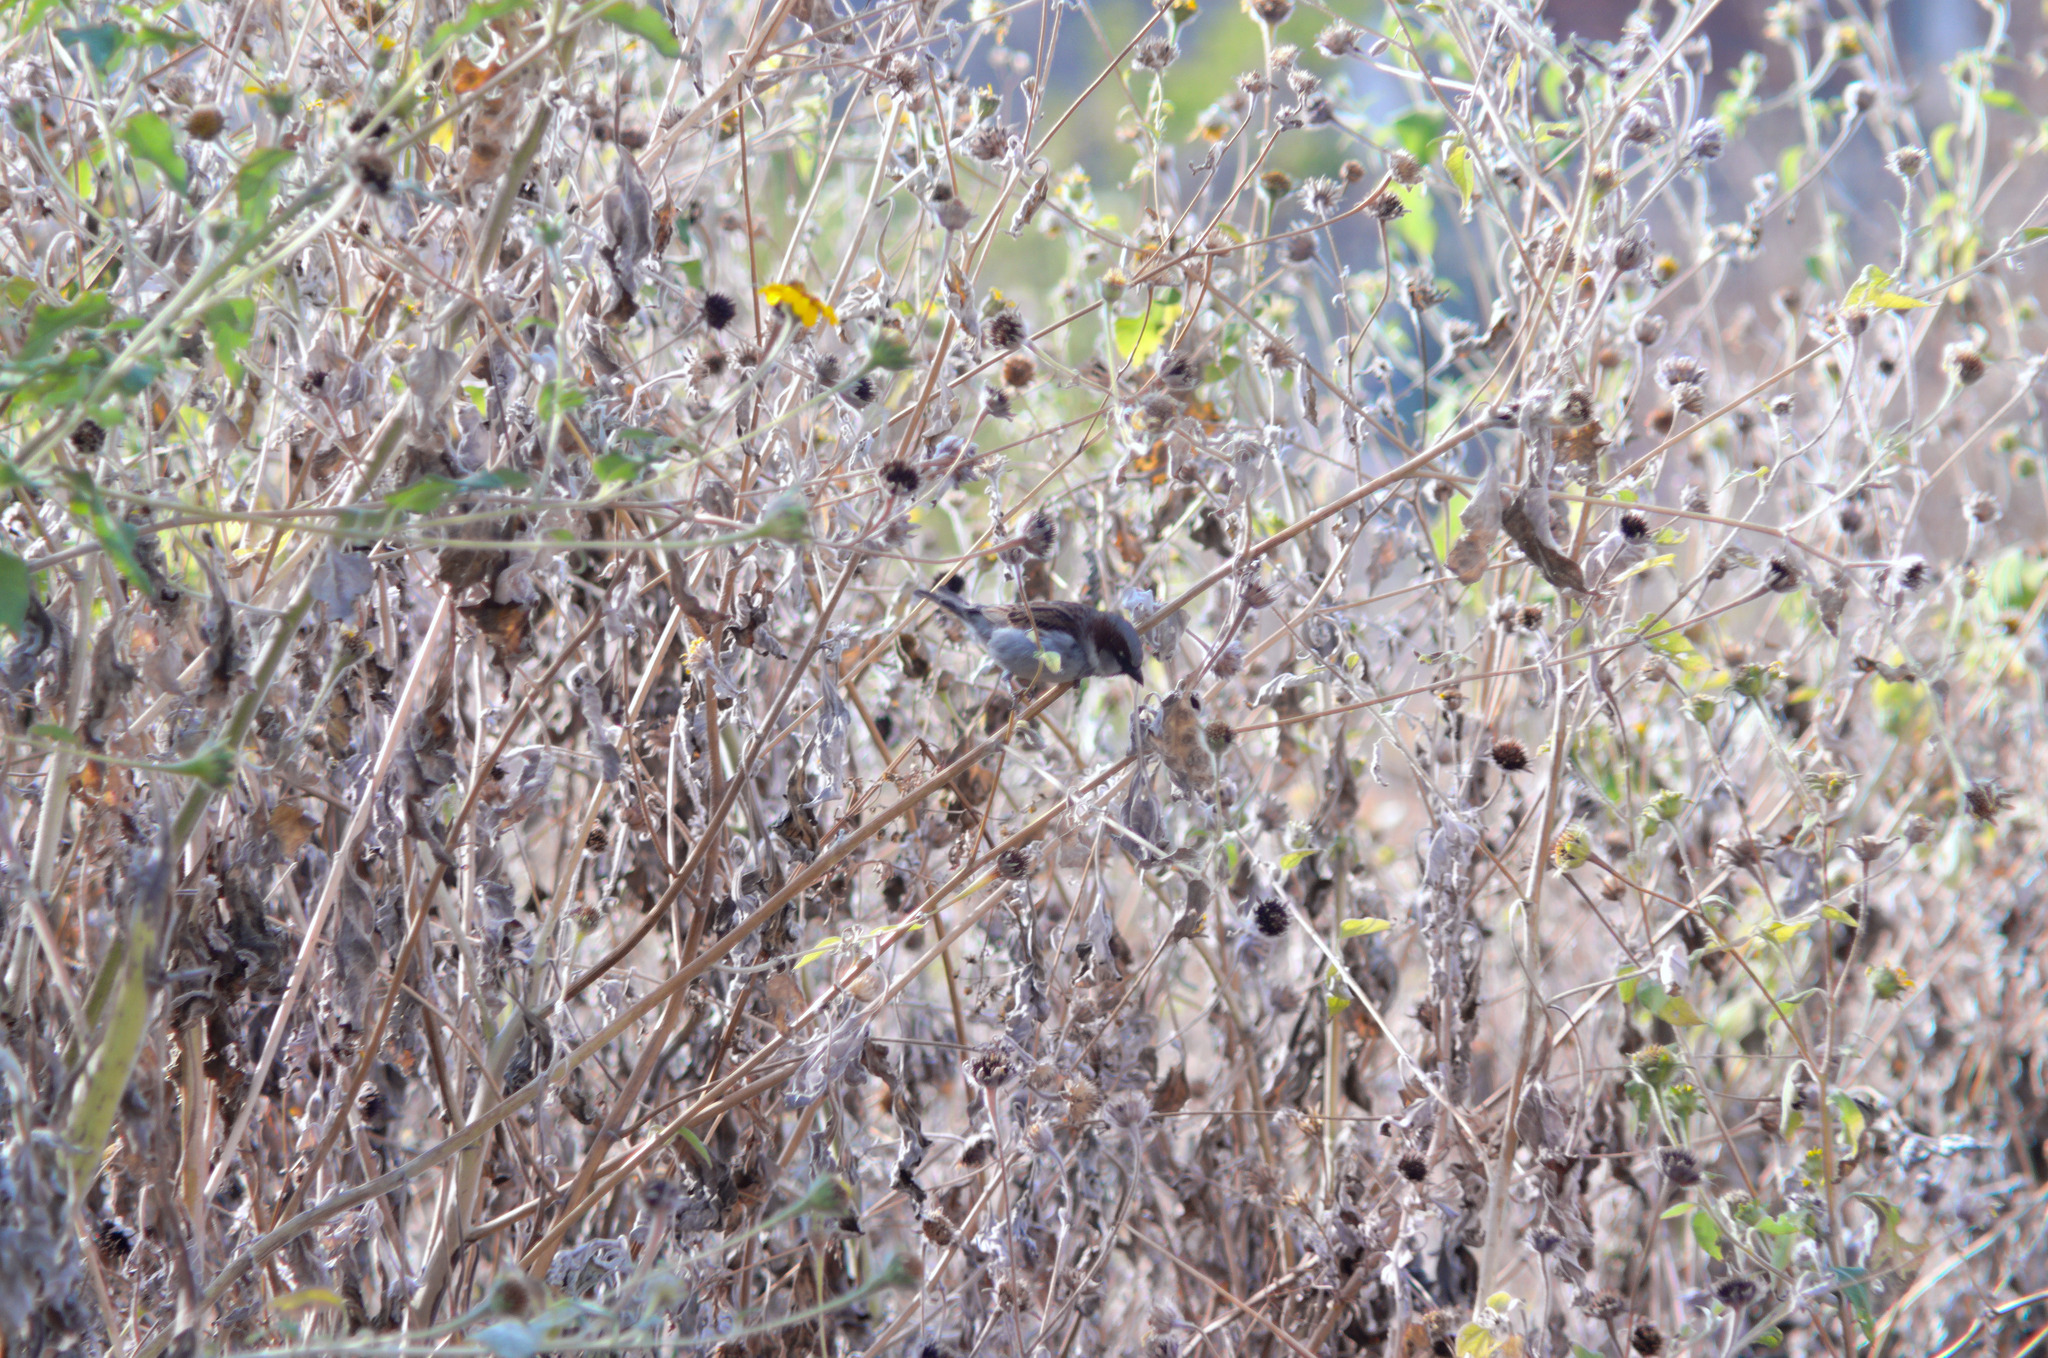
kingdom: Animalia
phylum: Chordata
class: Aves
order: Passeriformes
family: Passeridae
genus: Passer
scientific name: Passer domesticus
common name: House sparrow
